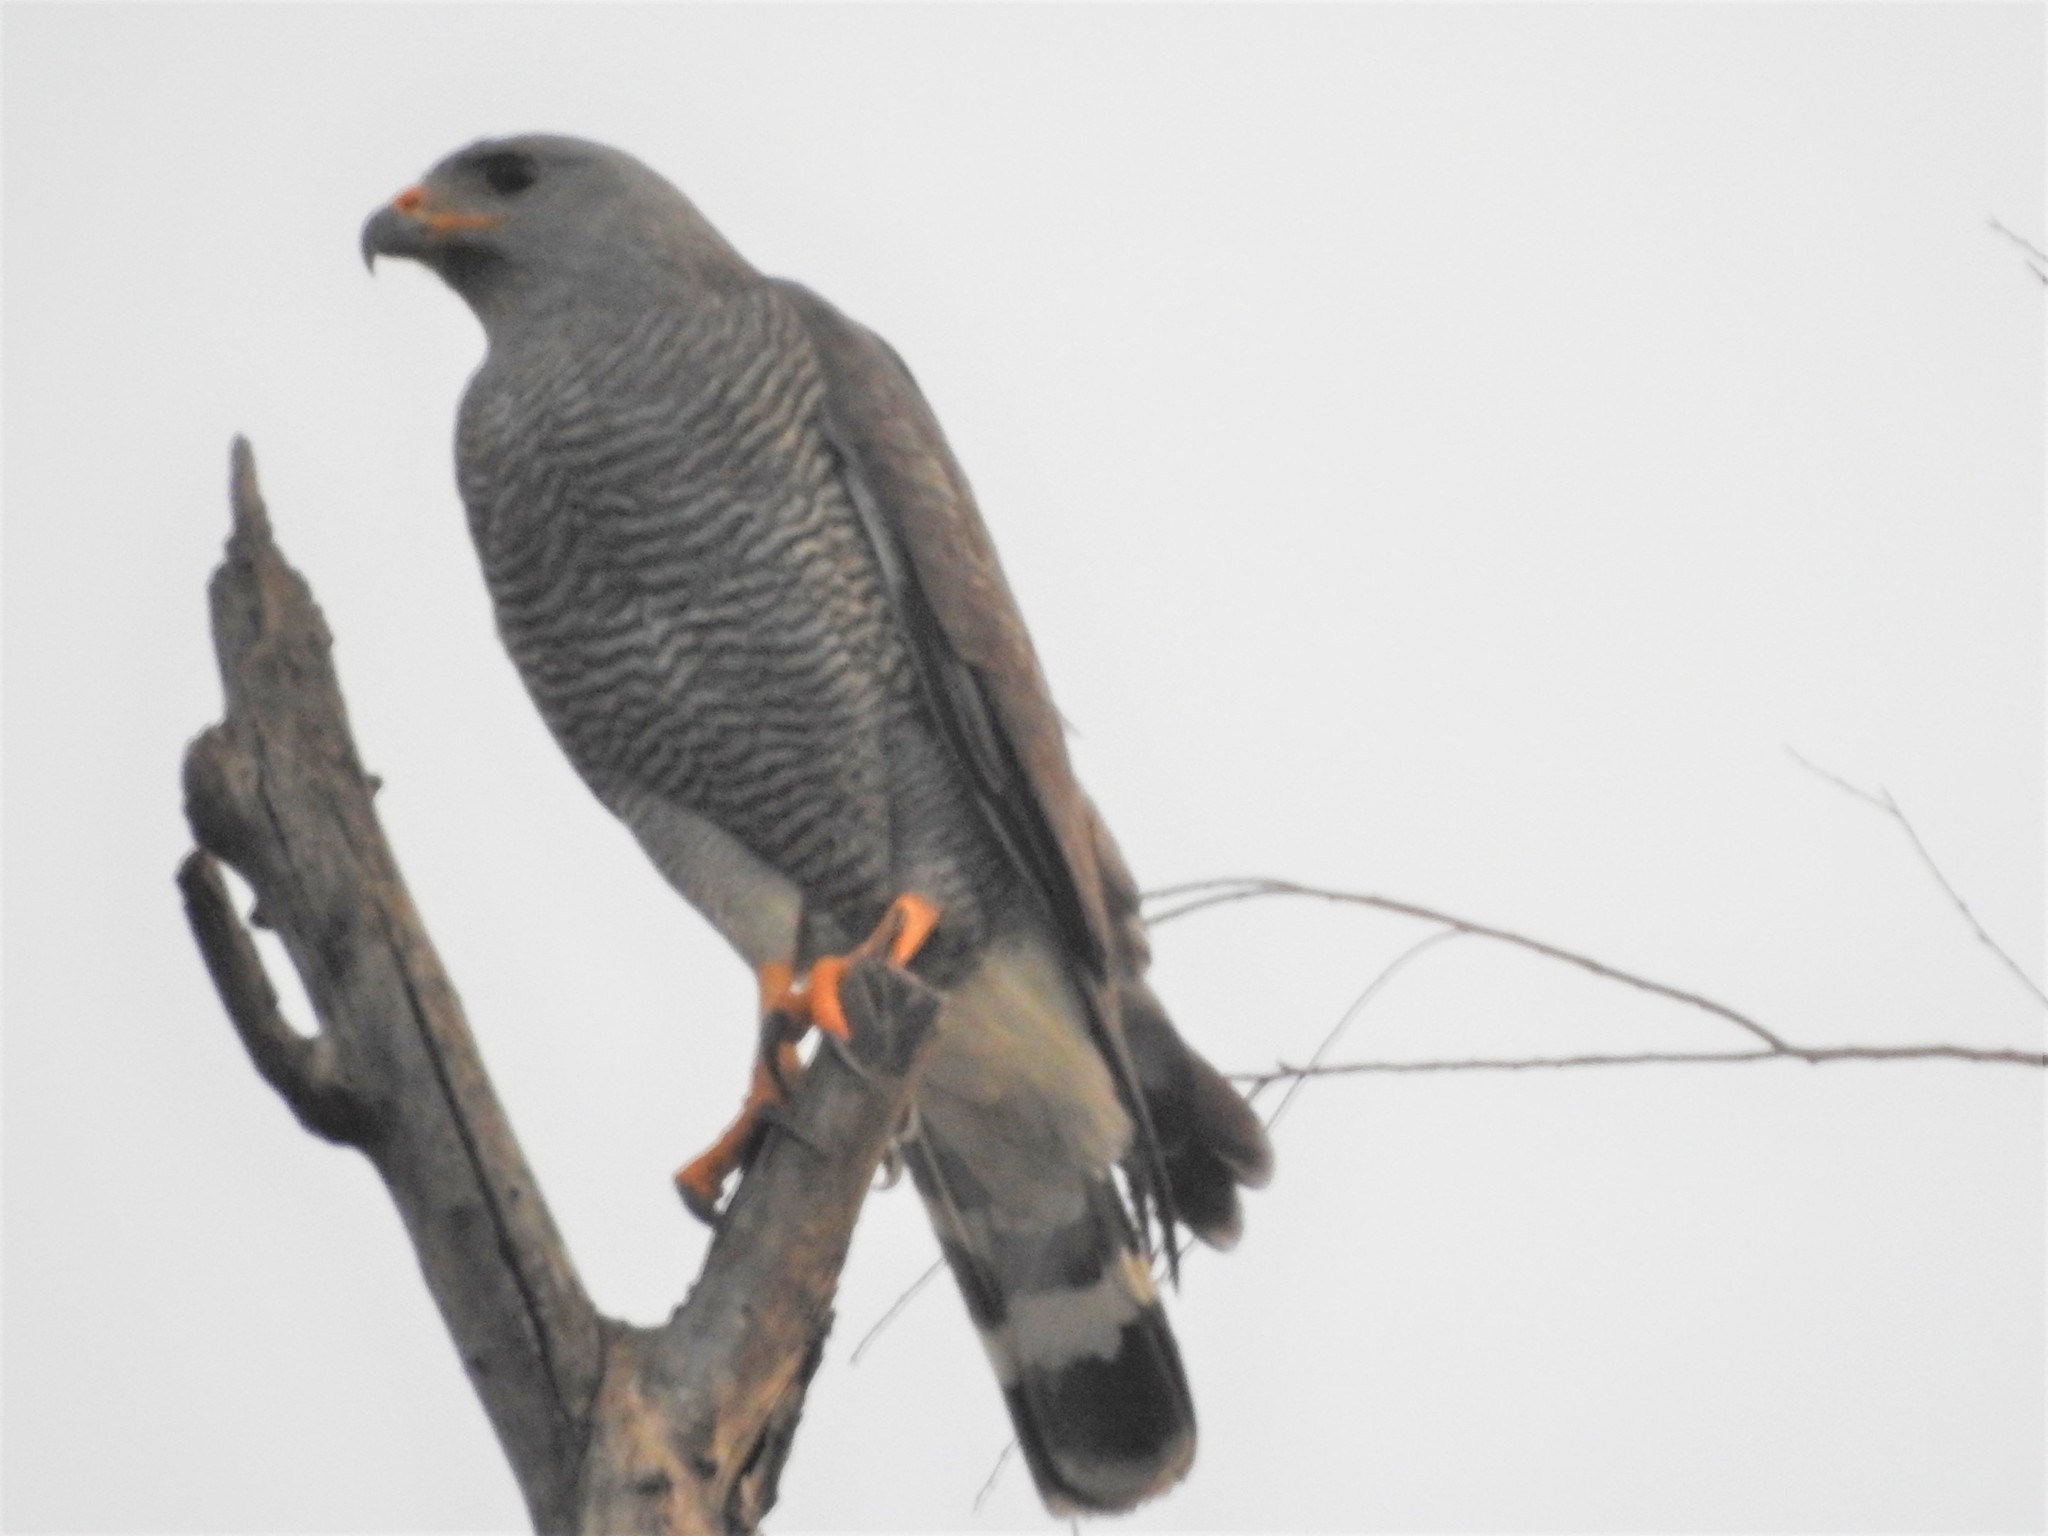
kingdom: Animalia
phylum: Chordata
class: Aves
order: Accipitriformes
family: Accipitridae
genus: Buteo
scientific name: Buteo nitidus
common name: Grey-lined hawk
